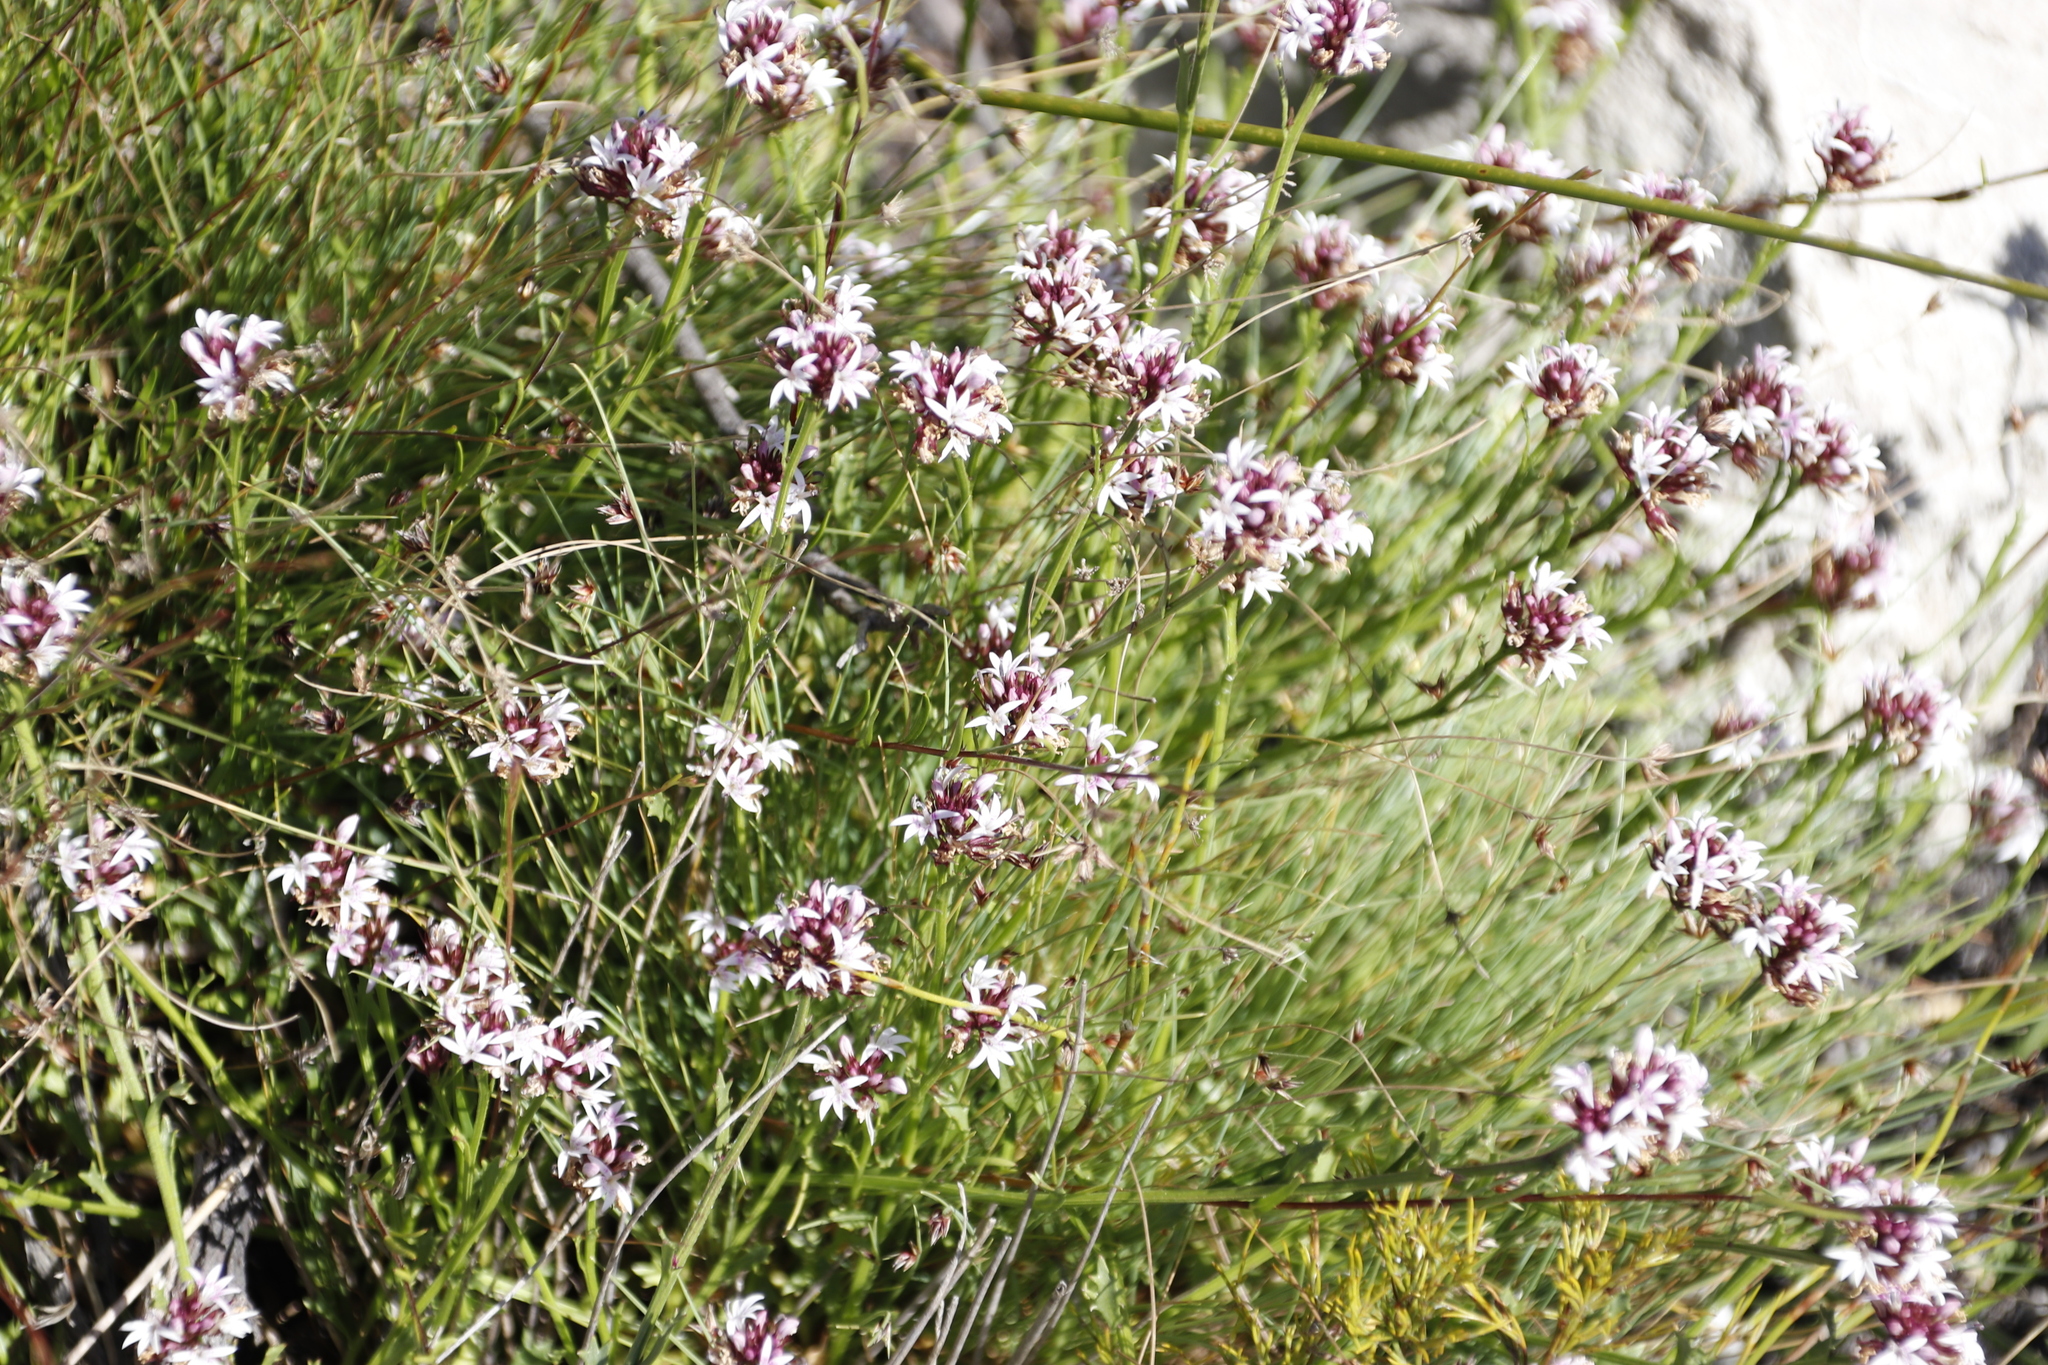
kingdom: Plantae
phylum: Tracheophyta
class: Magnoliopsida
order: Asterales
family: Campanulaceae
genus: Lobelia
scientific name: Lobelia jasionoides
